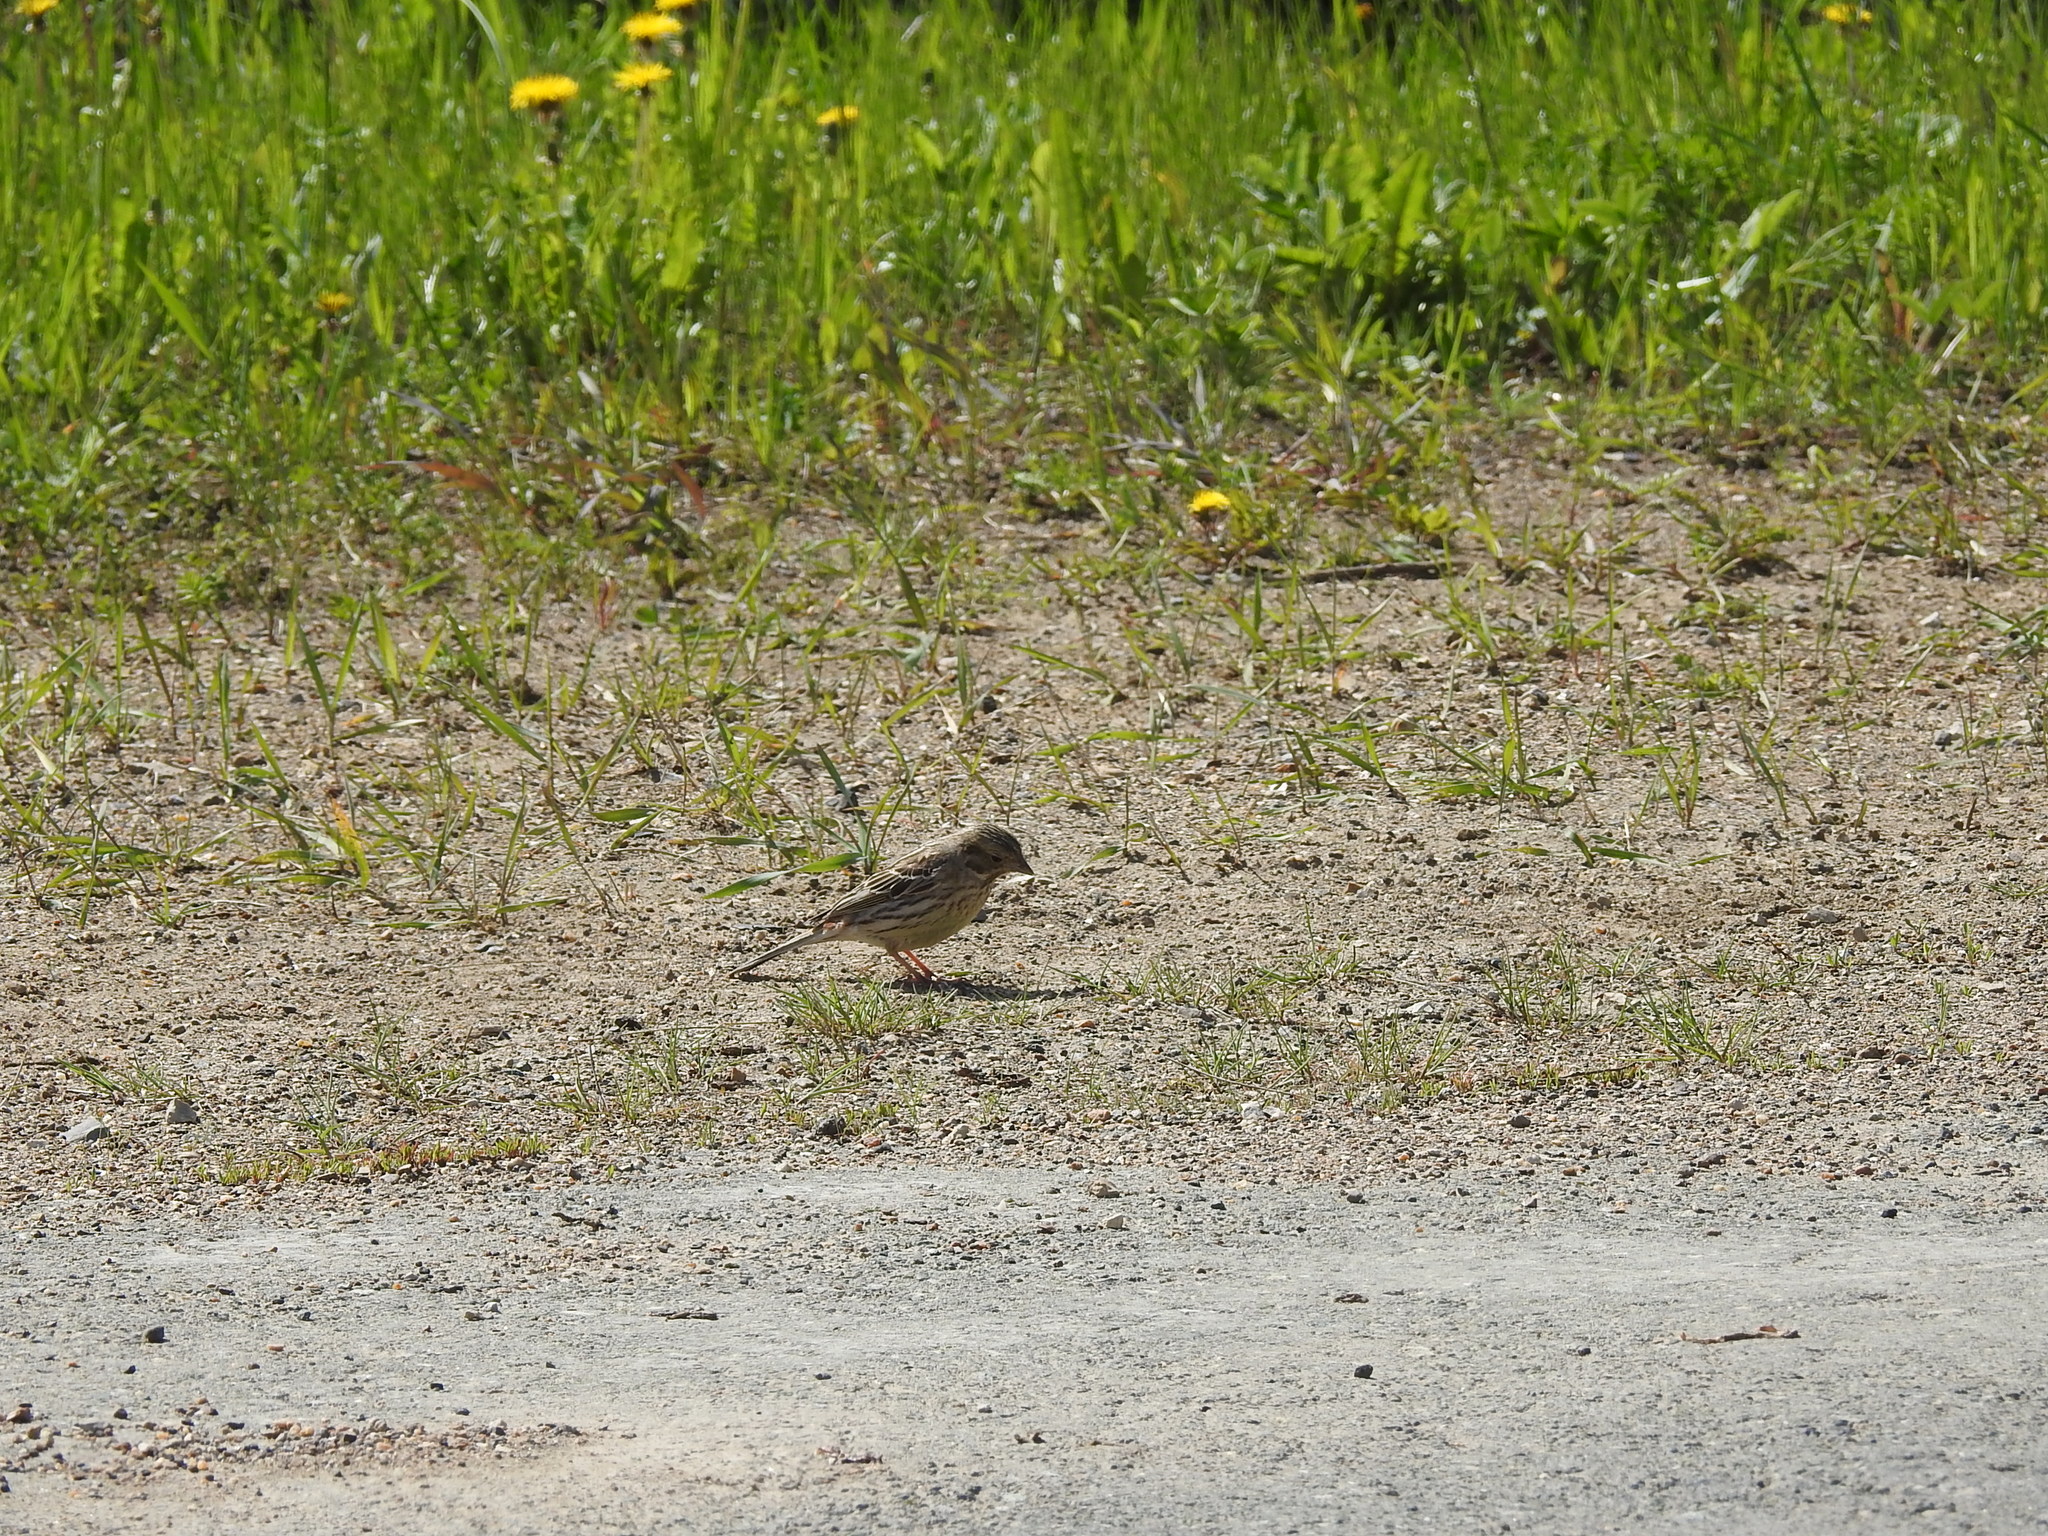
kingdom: Animalia
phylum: Chordata
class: Aves
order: Passeriformes
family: Emberizidae
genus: Emberiza
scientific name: Emberiza citrinella
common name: Yellowhammer
